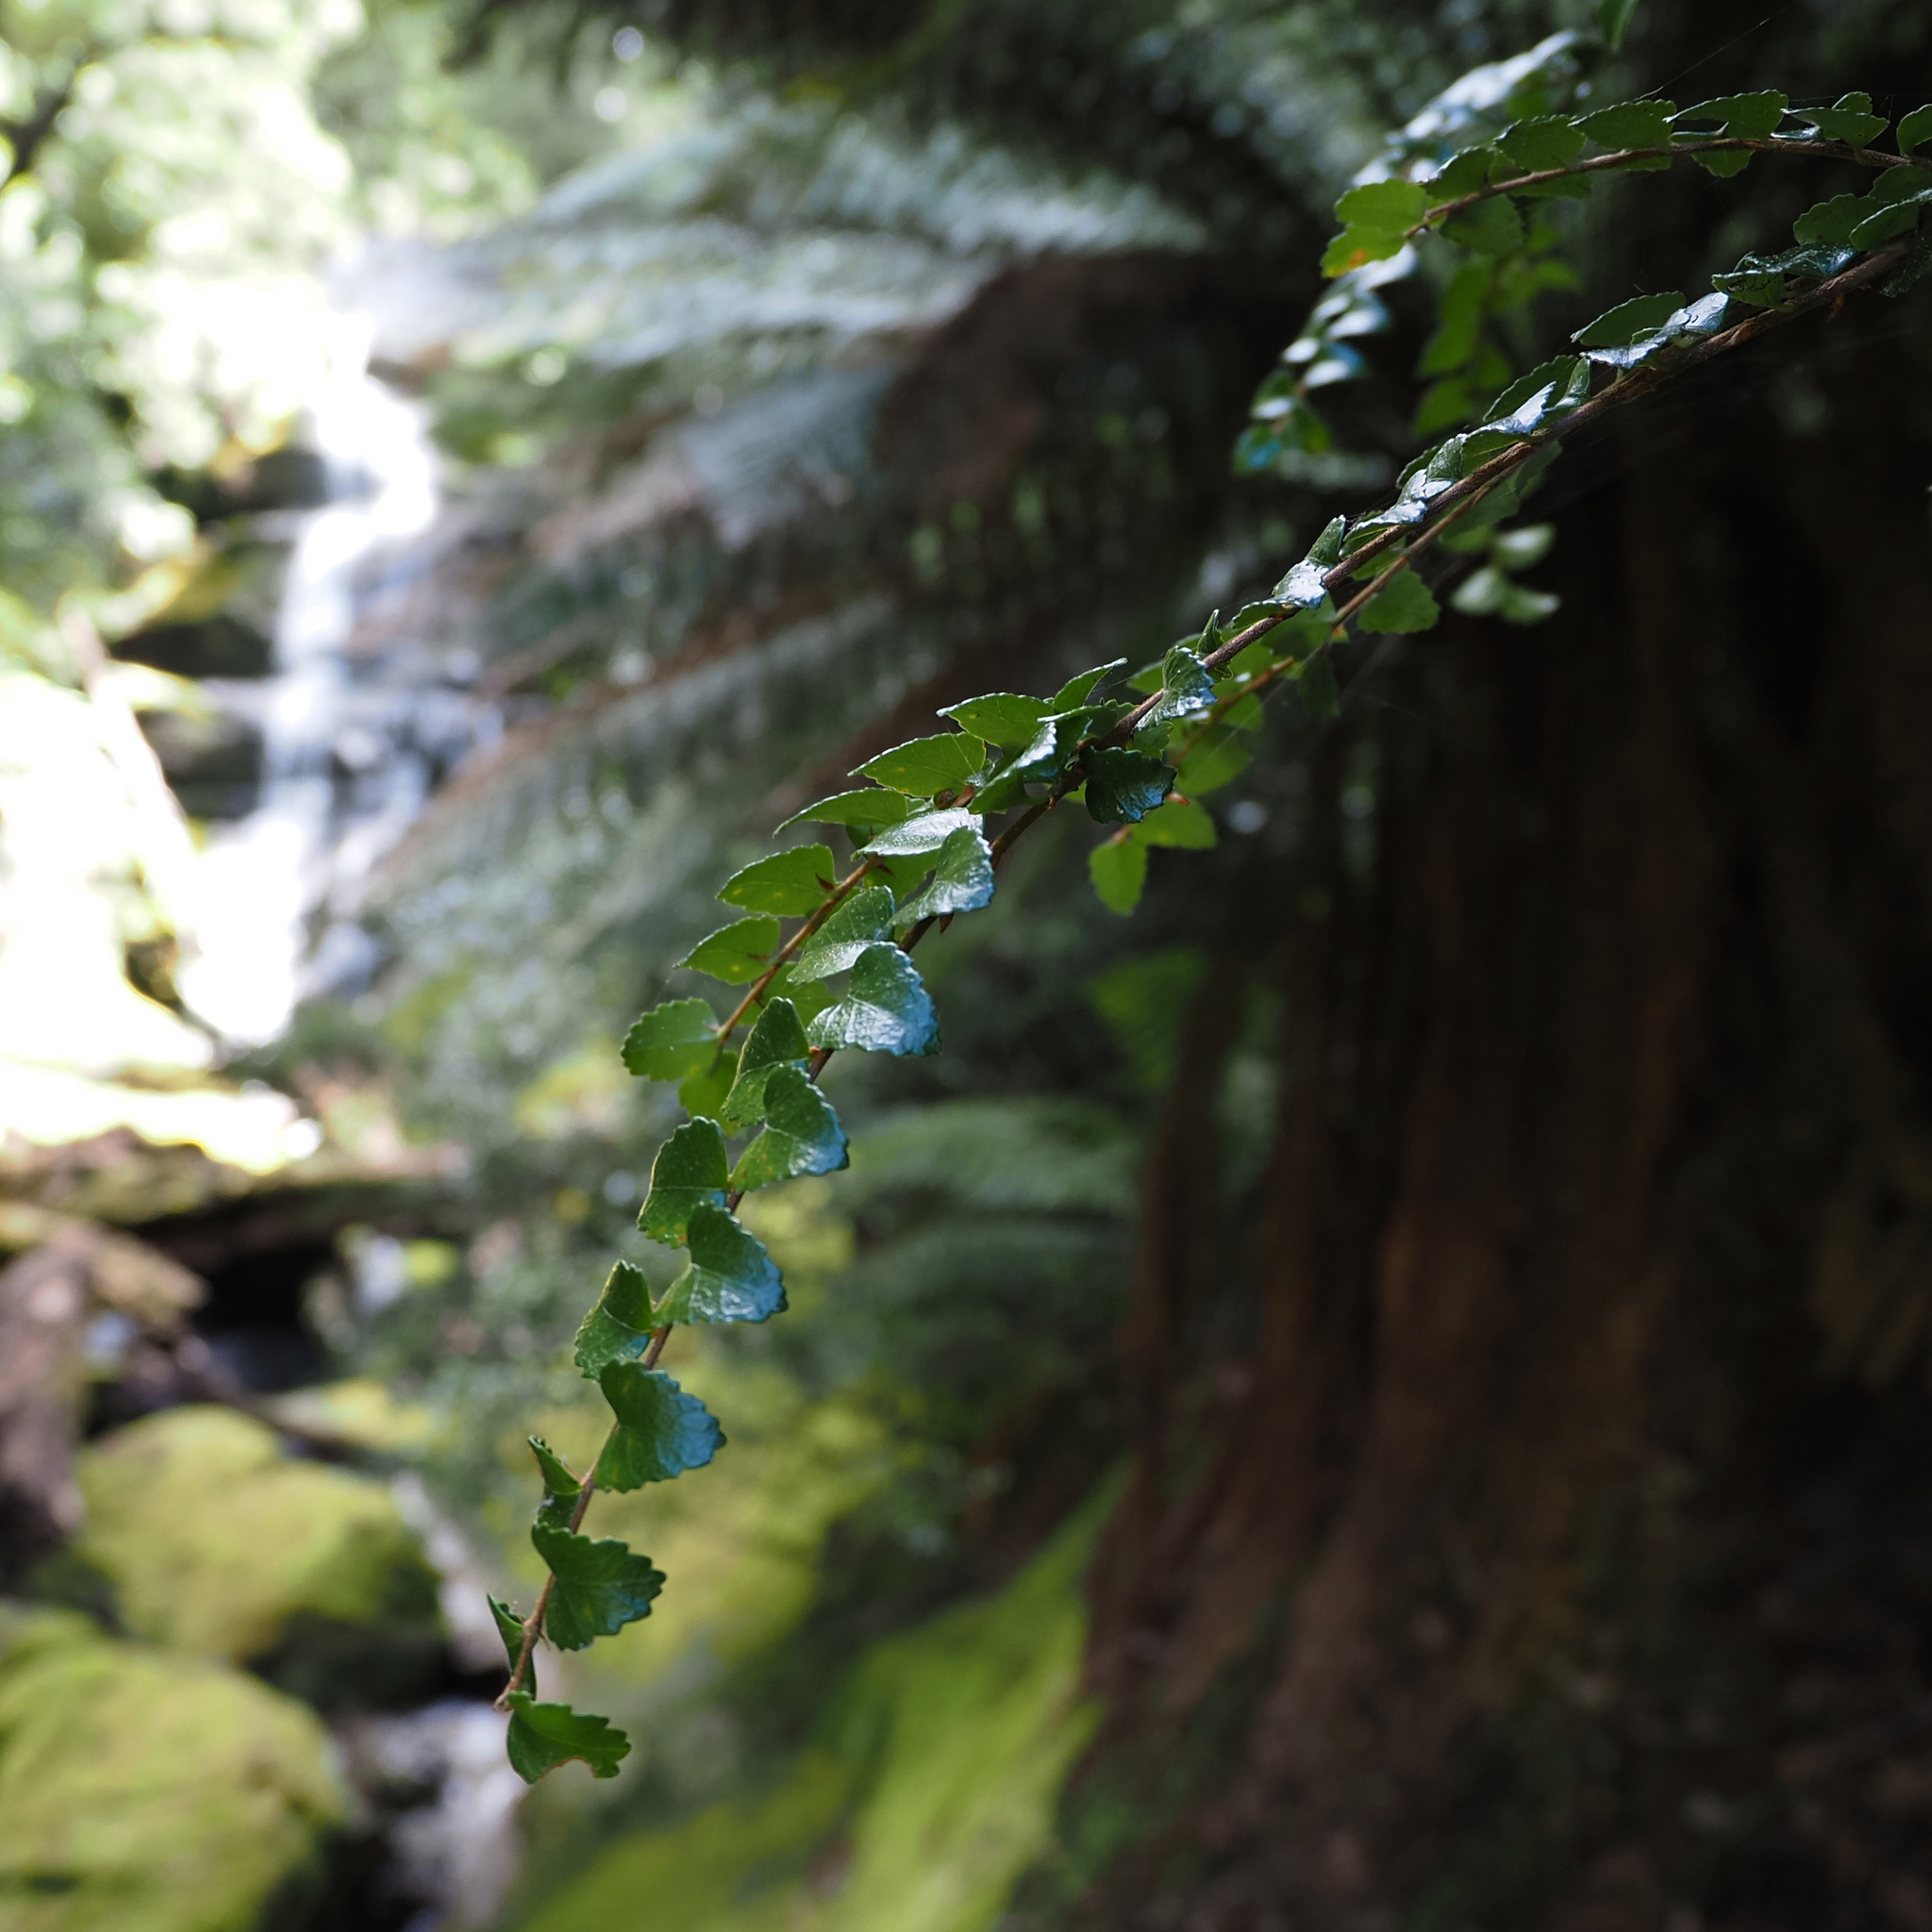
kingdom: Plantae
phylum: Tracheophyta
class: Magnoliopsida
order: Fagales
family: Nothofagaceae
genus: Nothofagus
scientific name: Nothofagus cunninghamii
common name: Myrtle beech
